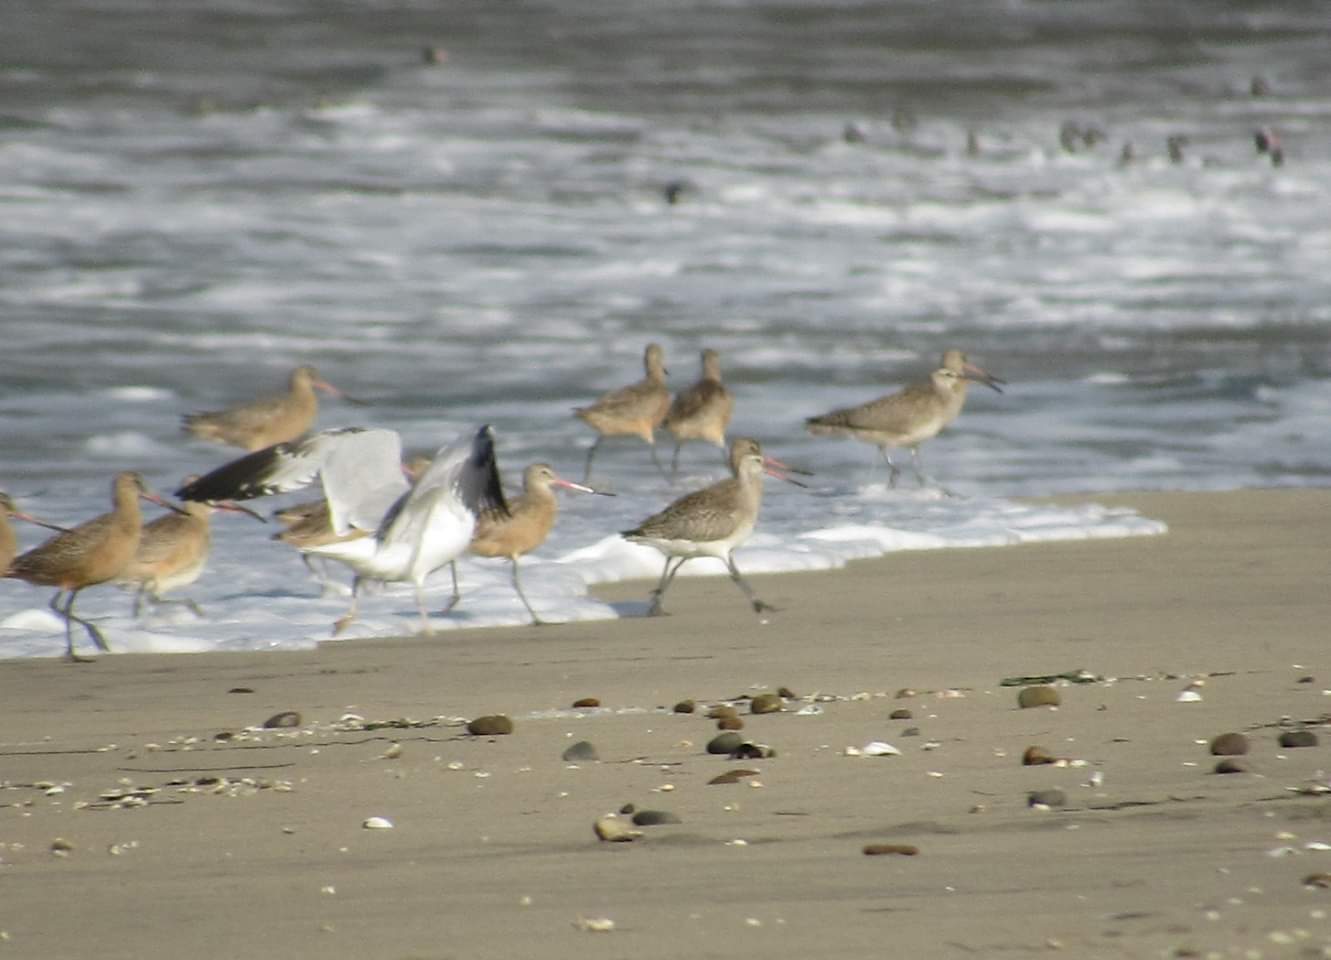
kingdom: Animalia
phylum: Chordata
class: Aves
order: Charadriiformes
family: Scolopacidae
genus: Limosa
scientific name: Limosa lapponica
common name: Bar-tailed godwit
